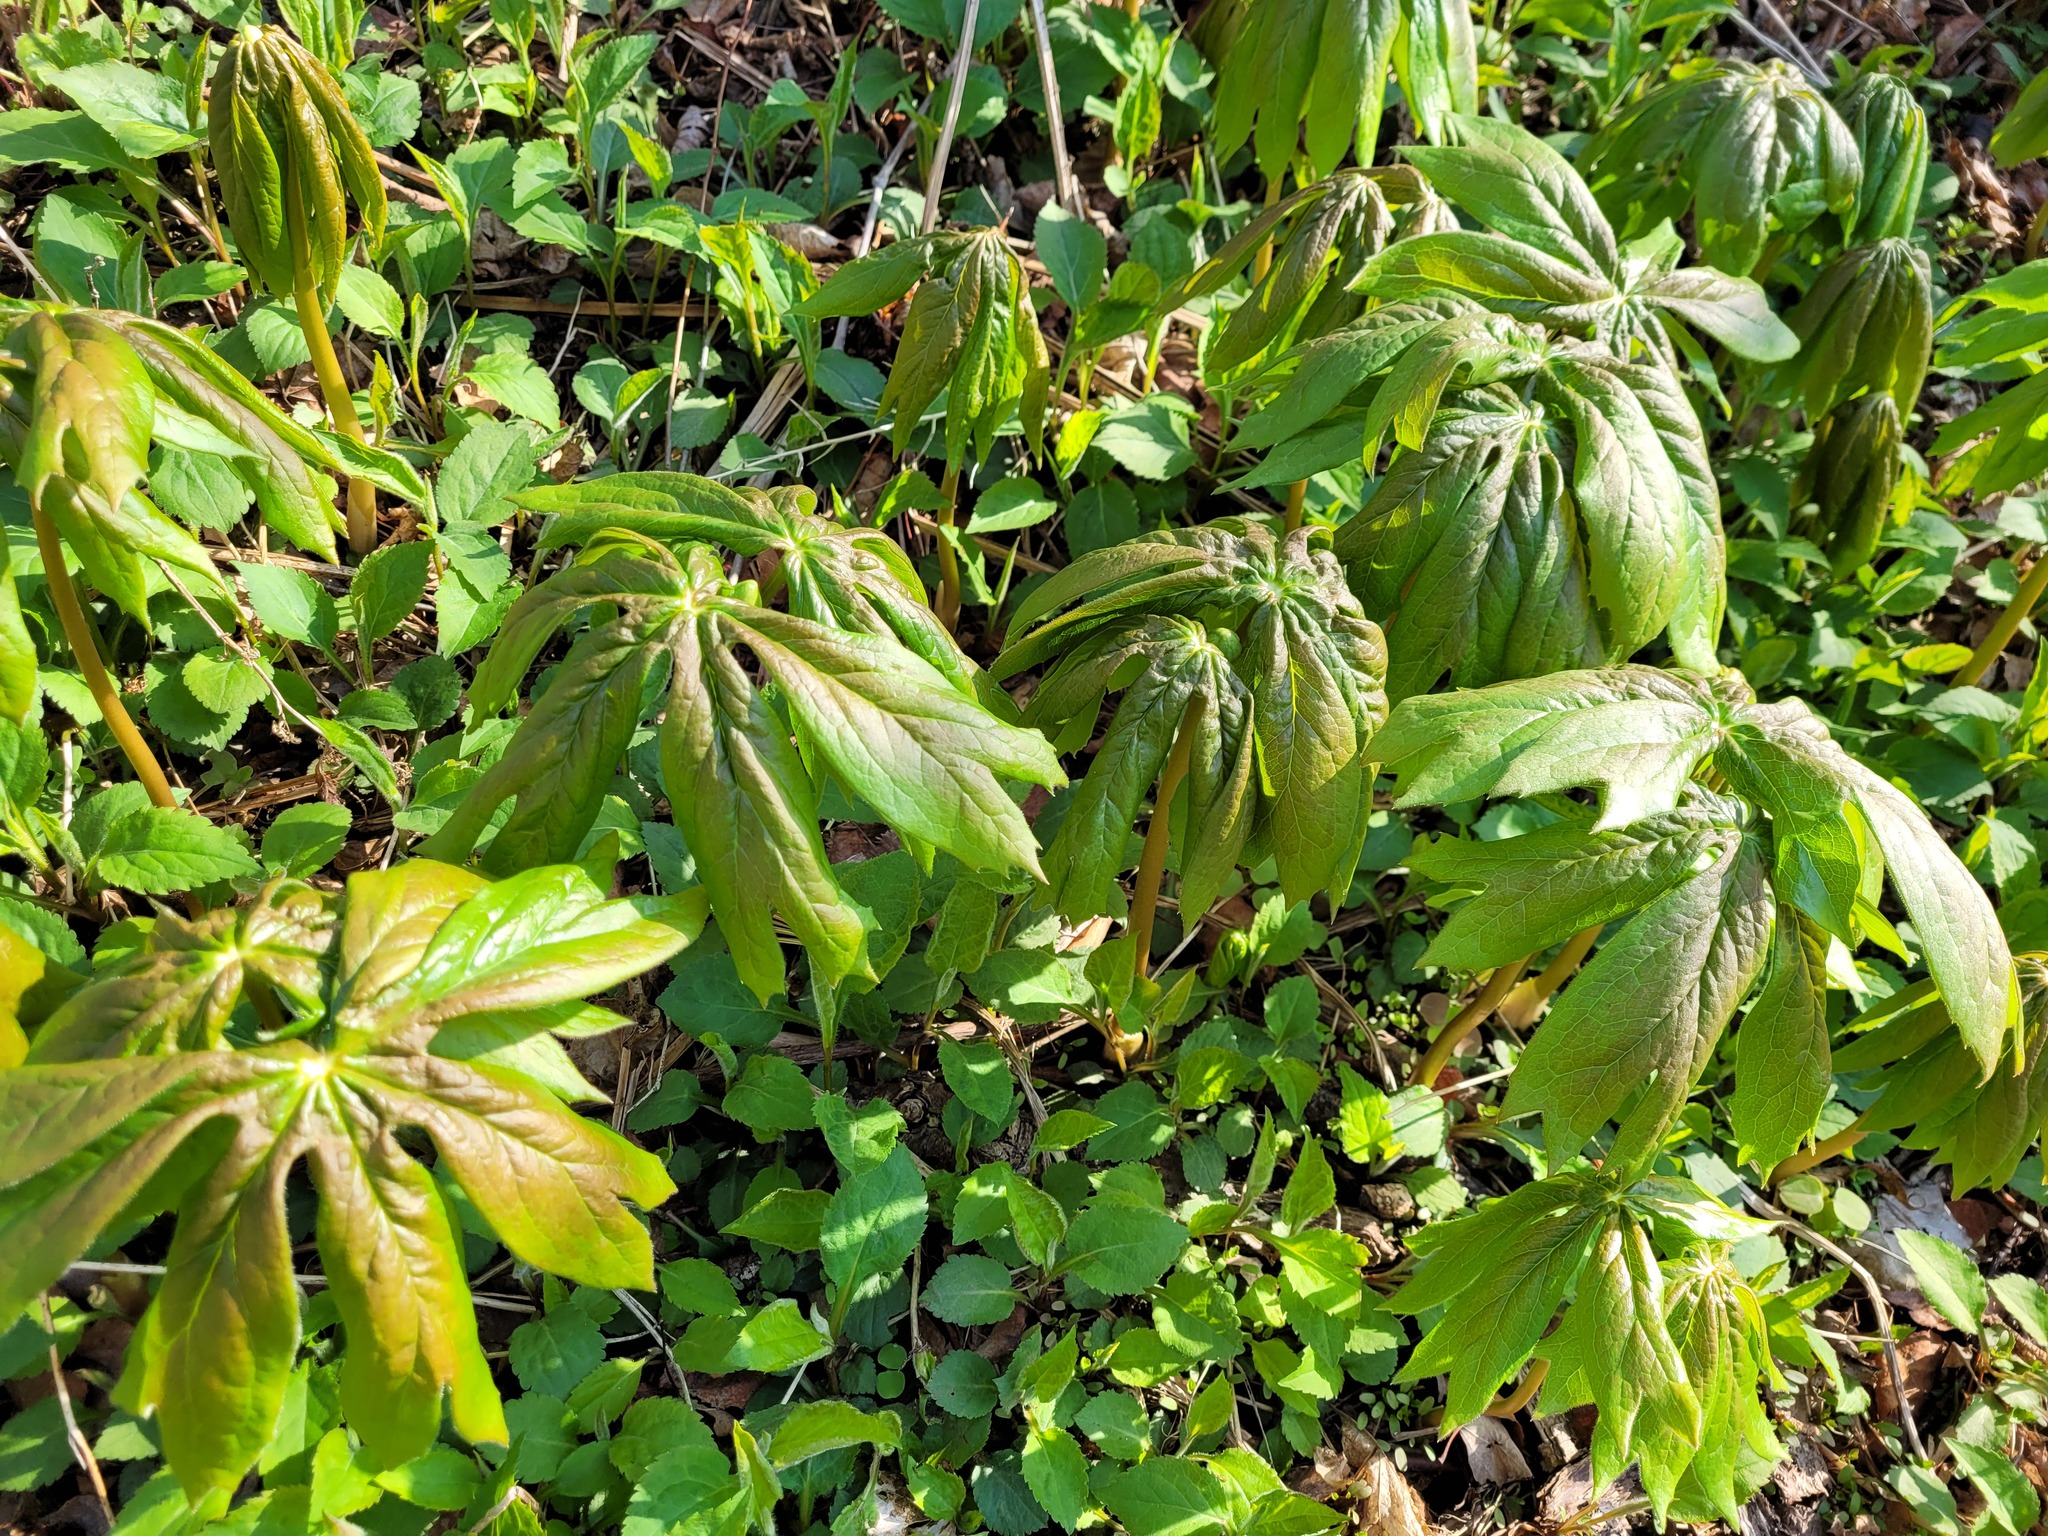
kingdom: Plantae
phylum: Tracheophyta
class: Magnoliopsida
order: Ranunculales
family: Berberidaceae
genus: Podophyllum
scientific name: Podophyllum peltatum
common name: Wild mandrake
